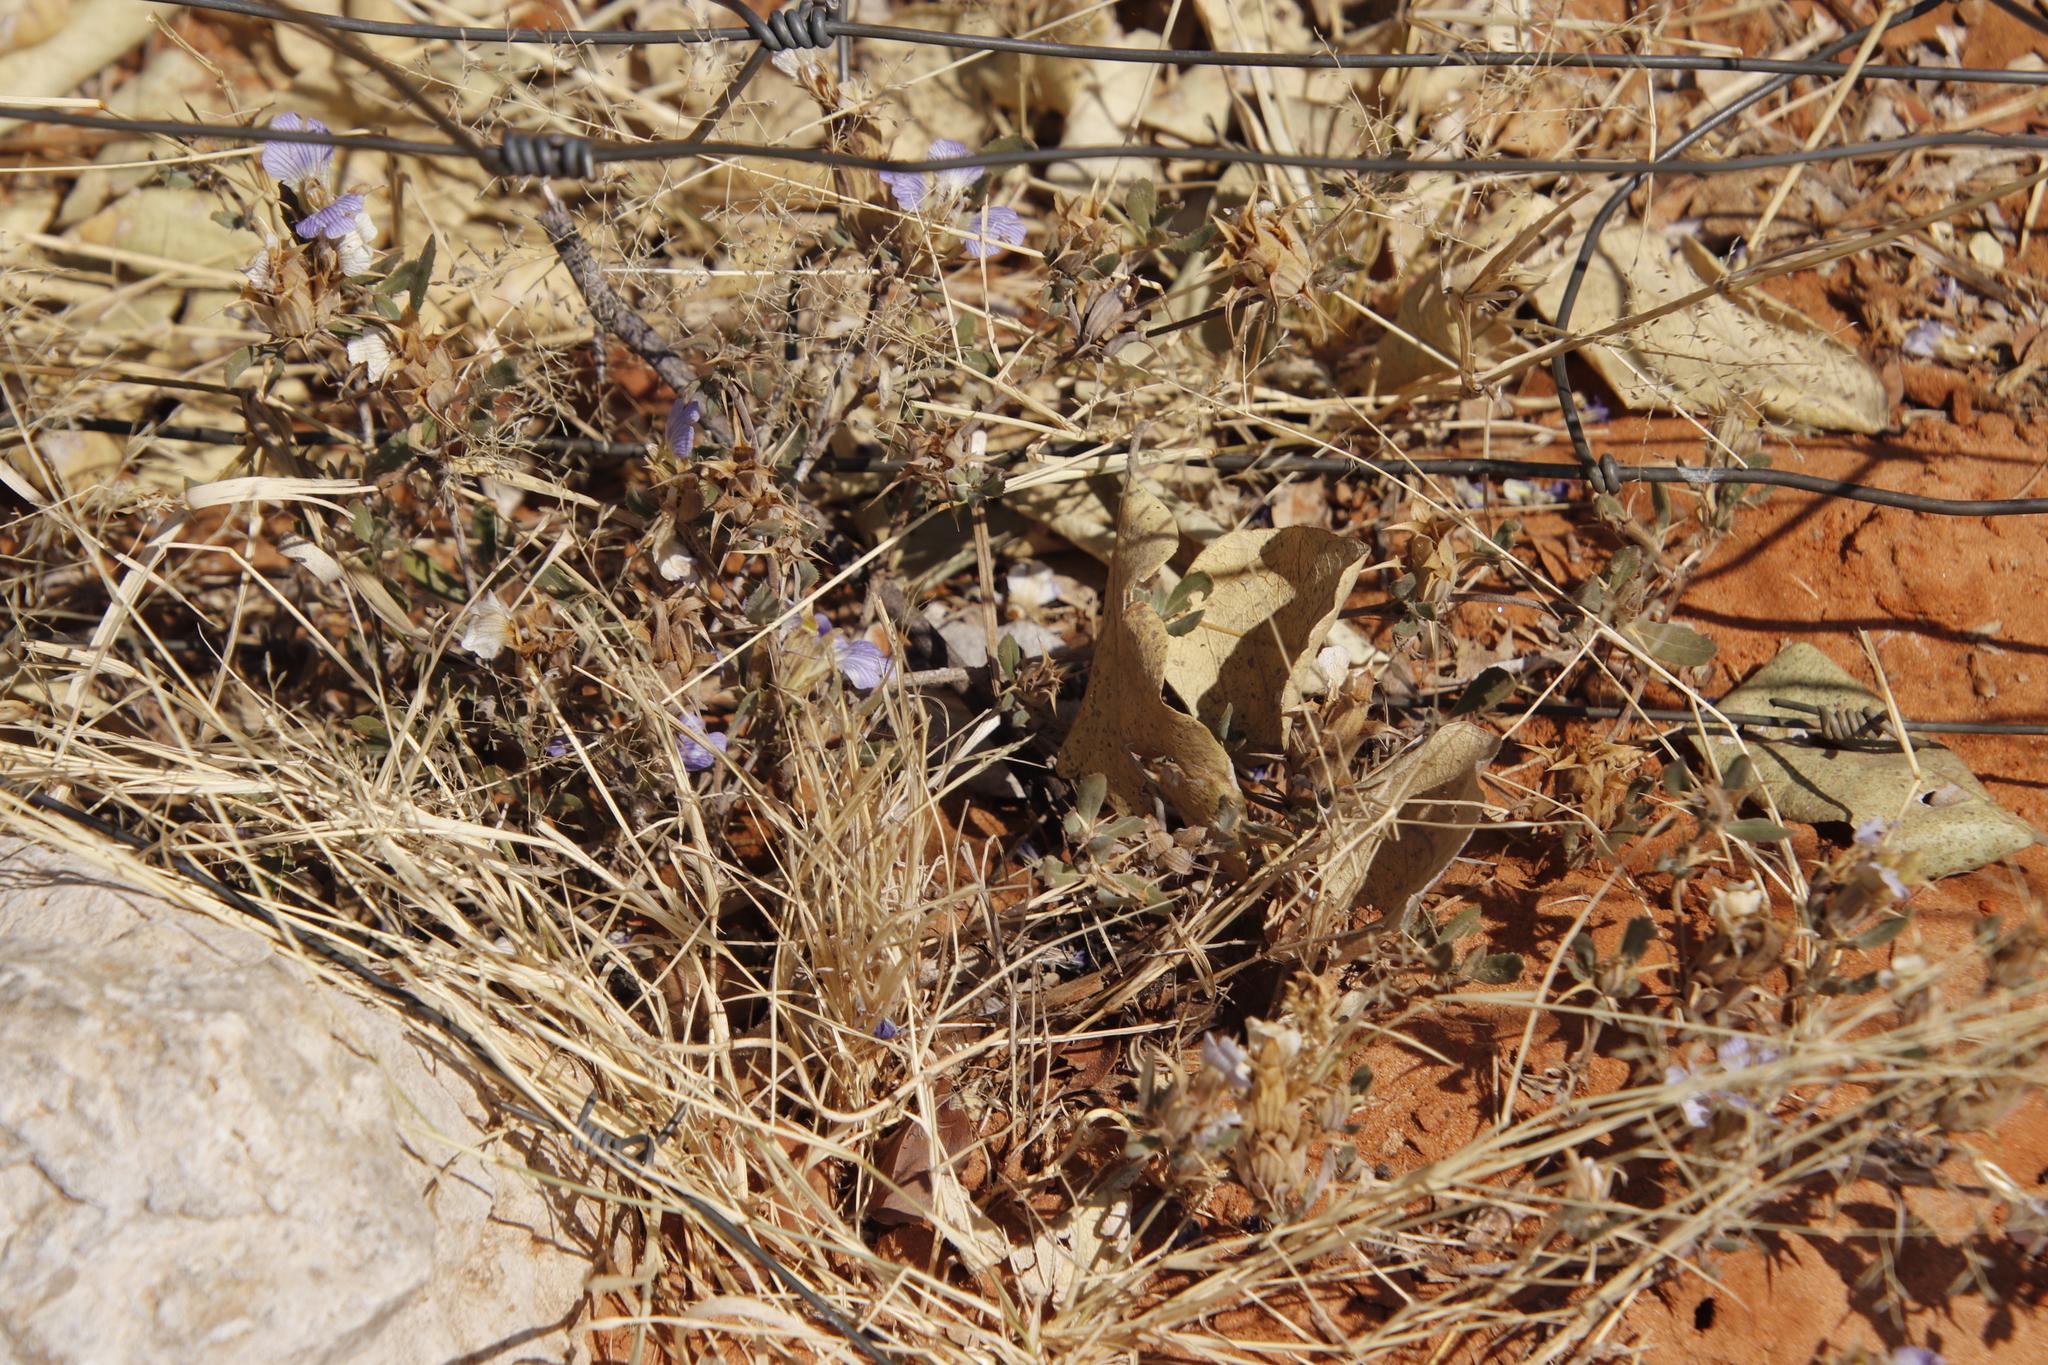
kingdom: Plantae
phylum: Tracheophyta
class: Magnoliopsida
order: Lamiales
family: Acanthaceae
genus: Blepharis
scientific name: Blepharis diversispina
